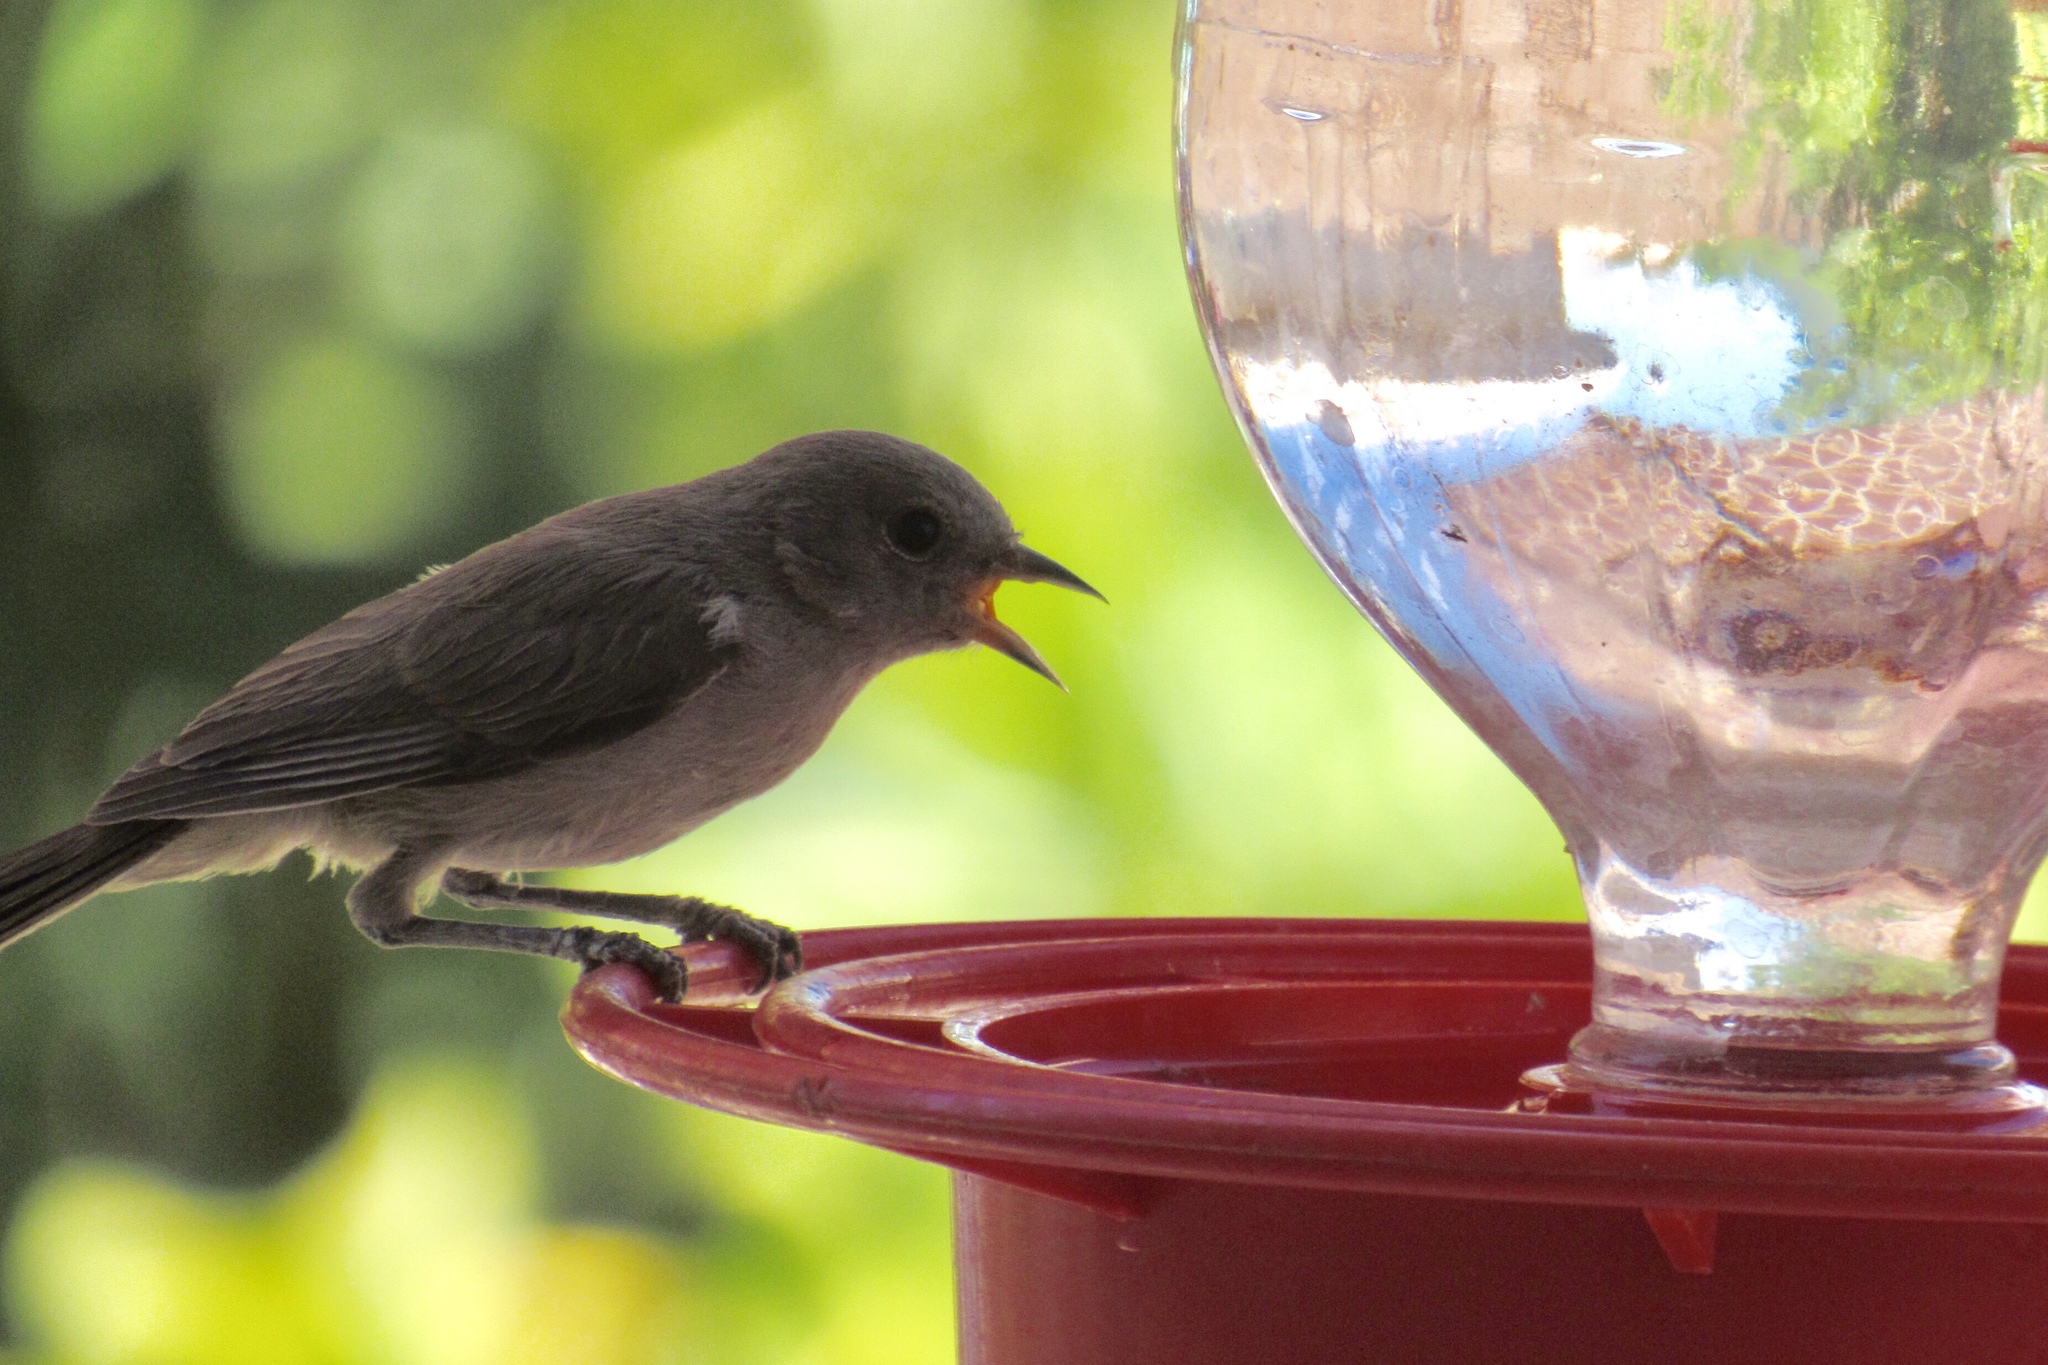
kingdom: Animalia
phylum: Chordata
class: Aves
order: Passeriformes
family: Remizidae
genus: Auriparus
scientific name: Auriparus flaviceps
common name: Verdin
